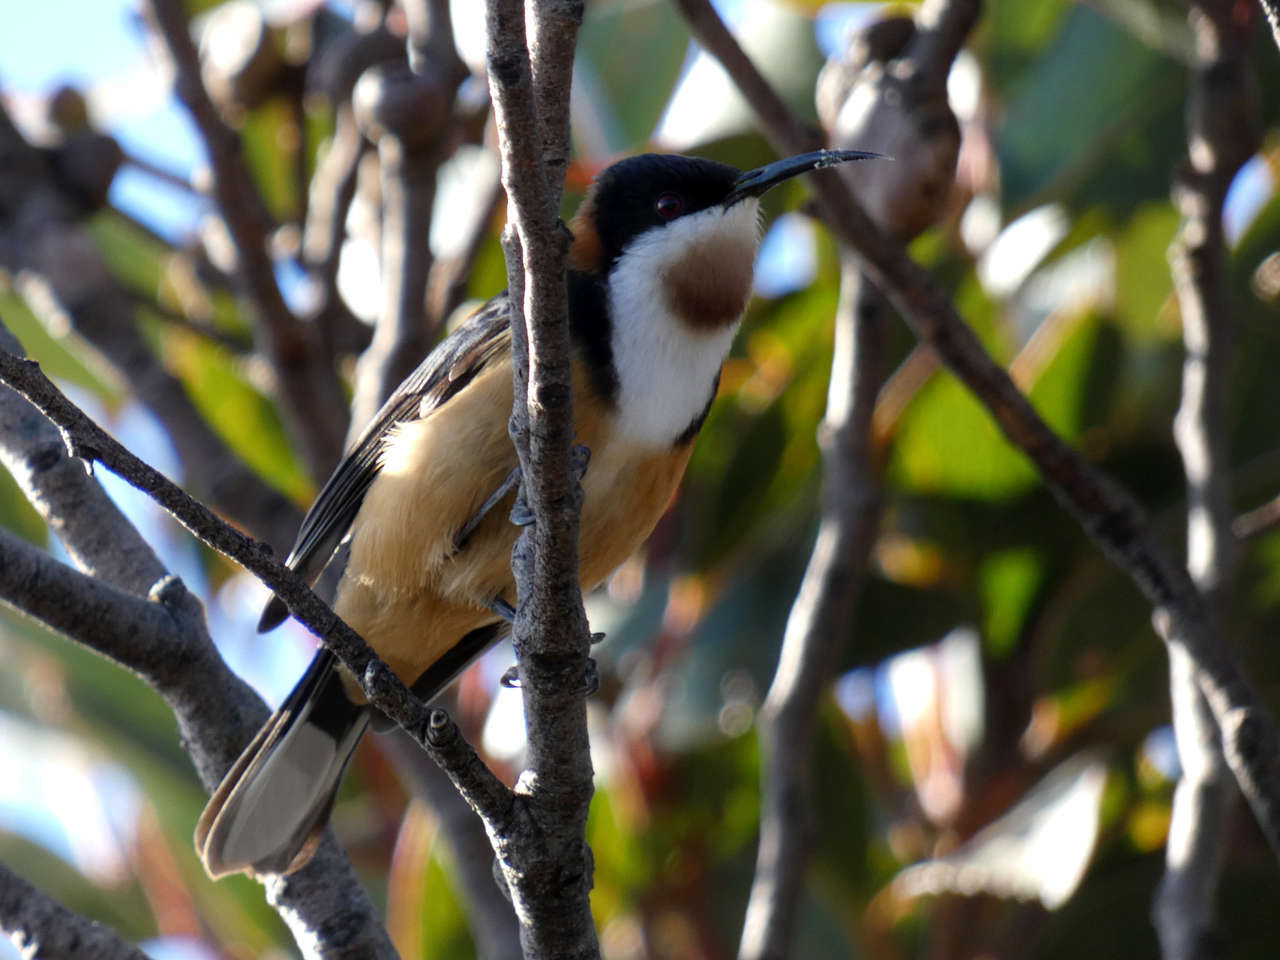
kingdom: Animalia
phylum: Chordata
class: Aves
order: Passeriformes
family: Meliphagidae
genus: Acanthorhynchus
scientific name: Acanthorhynchus tenuirostris
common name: Eastern spinebill
